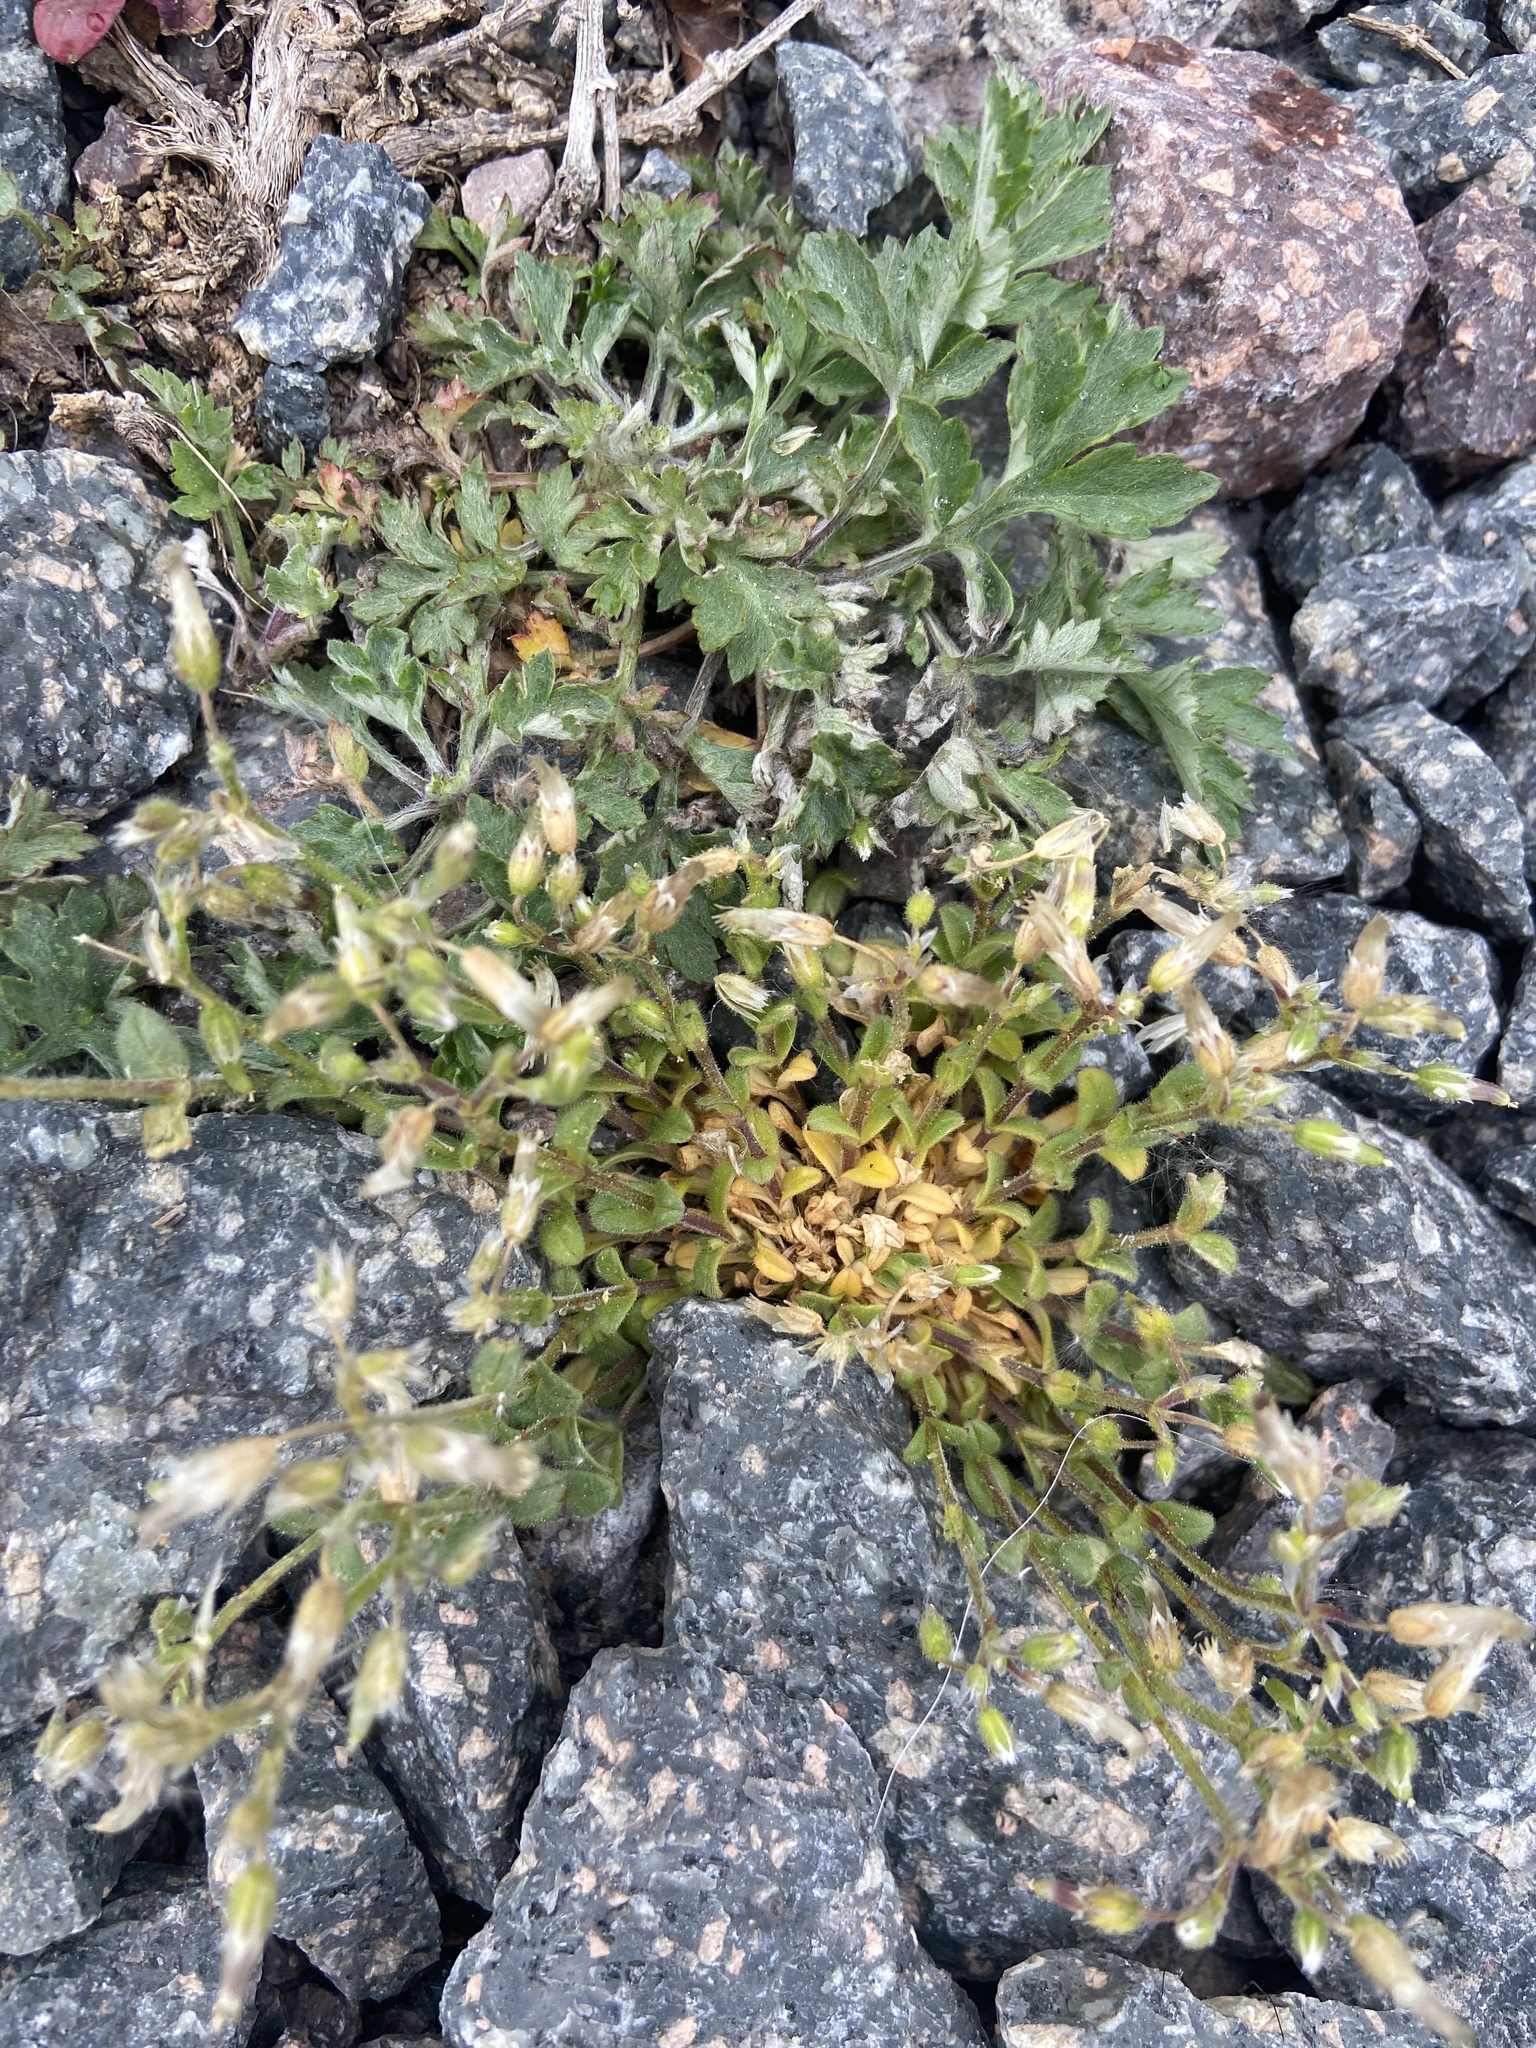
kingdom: Plantae
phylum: Tracheophyta
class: Magnoliopsida
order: Caryophyllales
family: Caryophyllaceae
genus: Cerastium
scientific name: Cerastium semidecandrum
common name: Little mouse-ear
